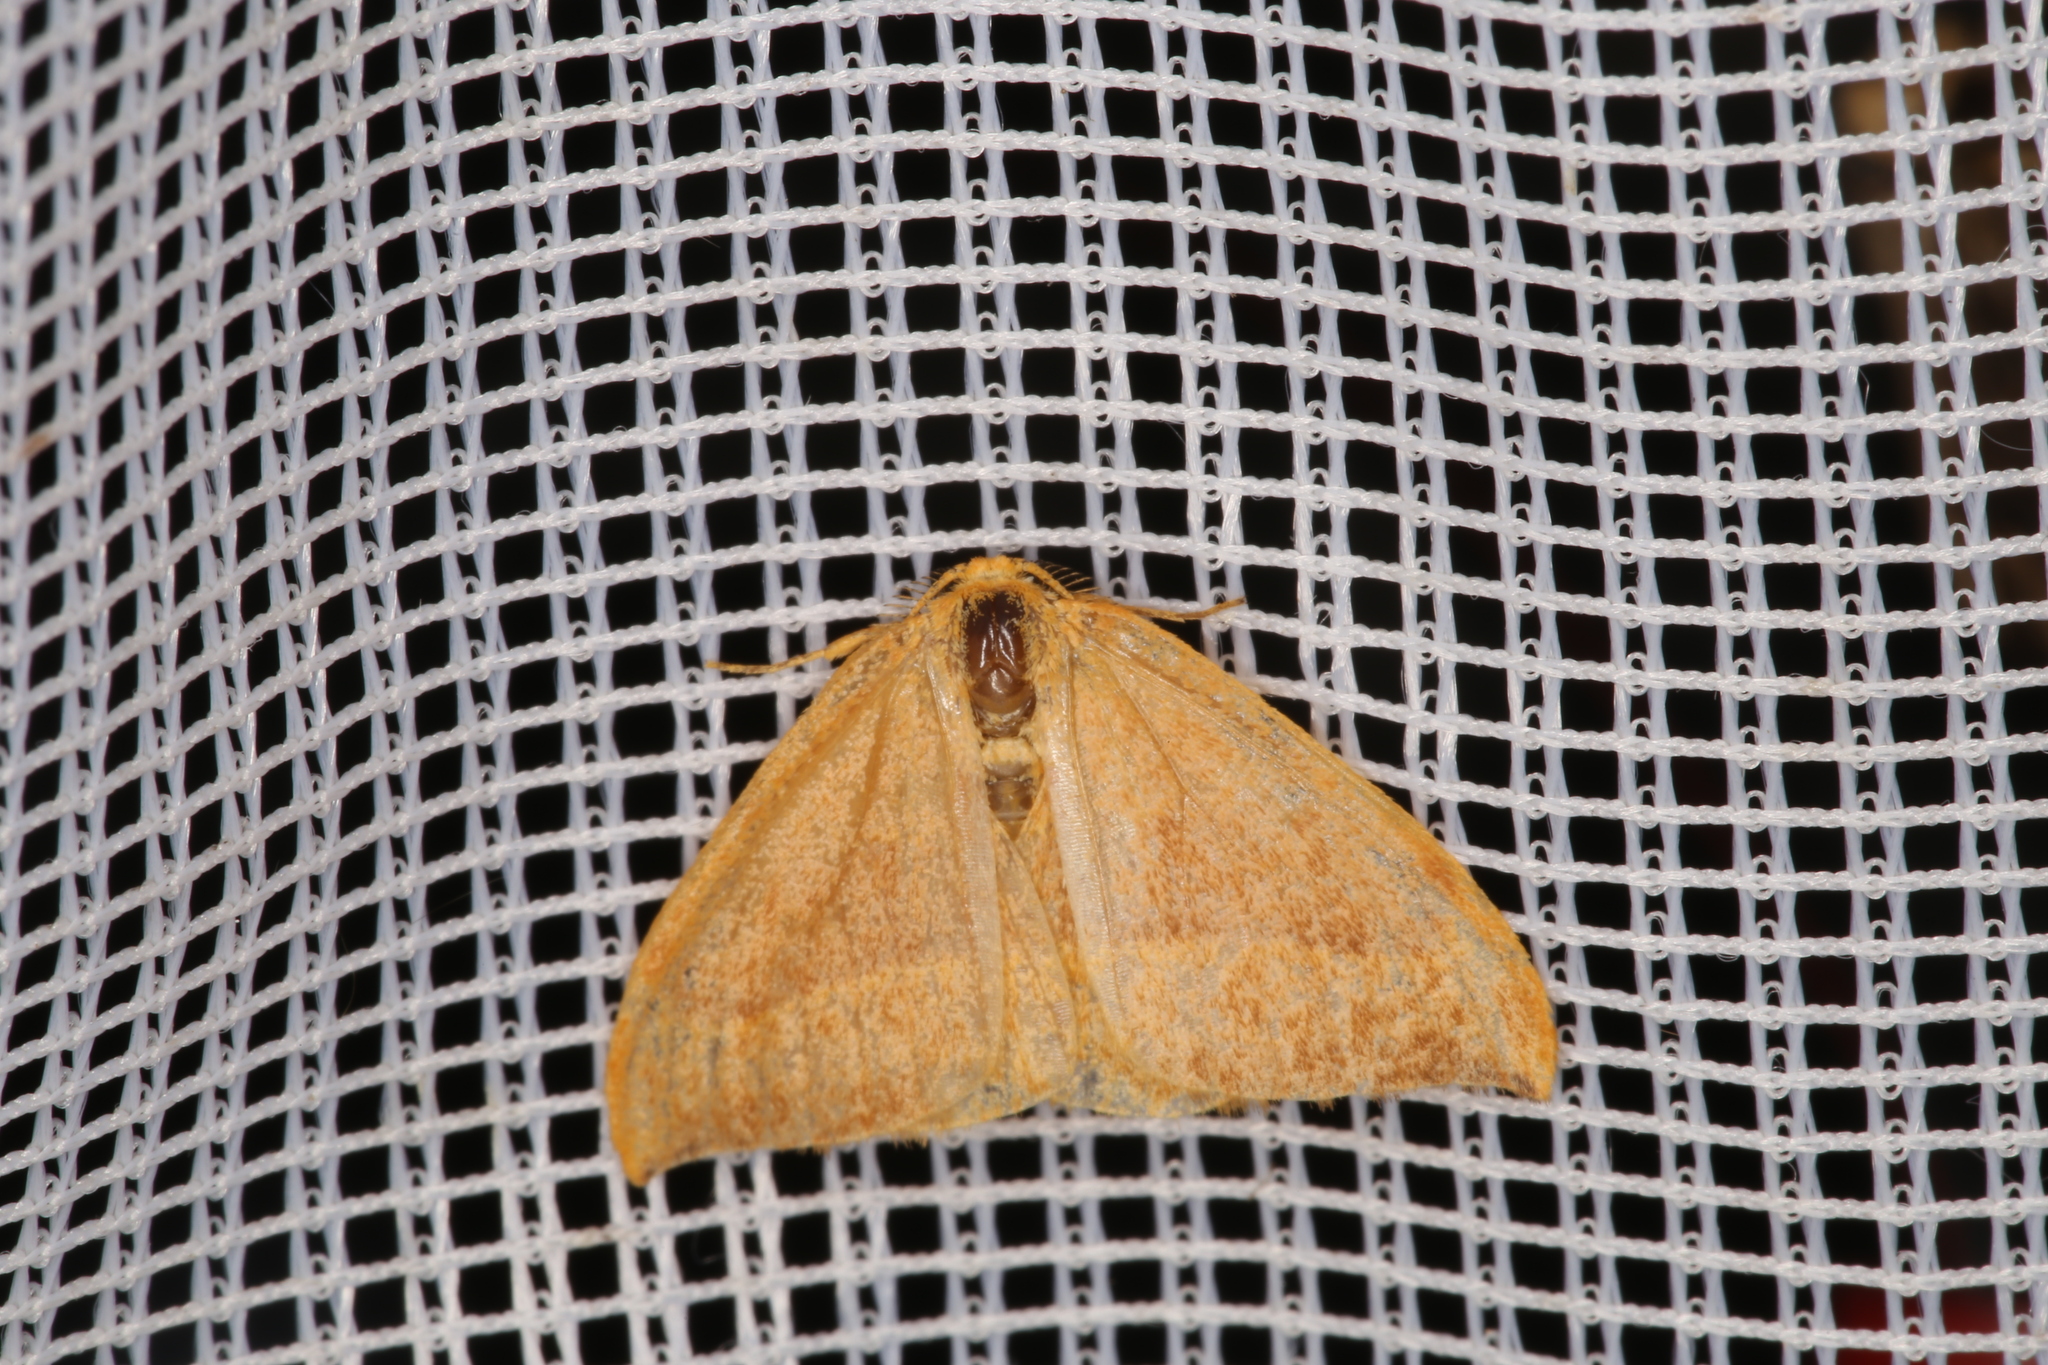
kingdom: Animalia
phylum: Arthropoda
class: Insecta
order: Lepidoptera
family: Drepanidae
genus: Watsonalla
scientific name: Watsonalla cultraria
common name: Barred hook-tip
